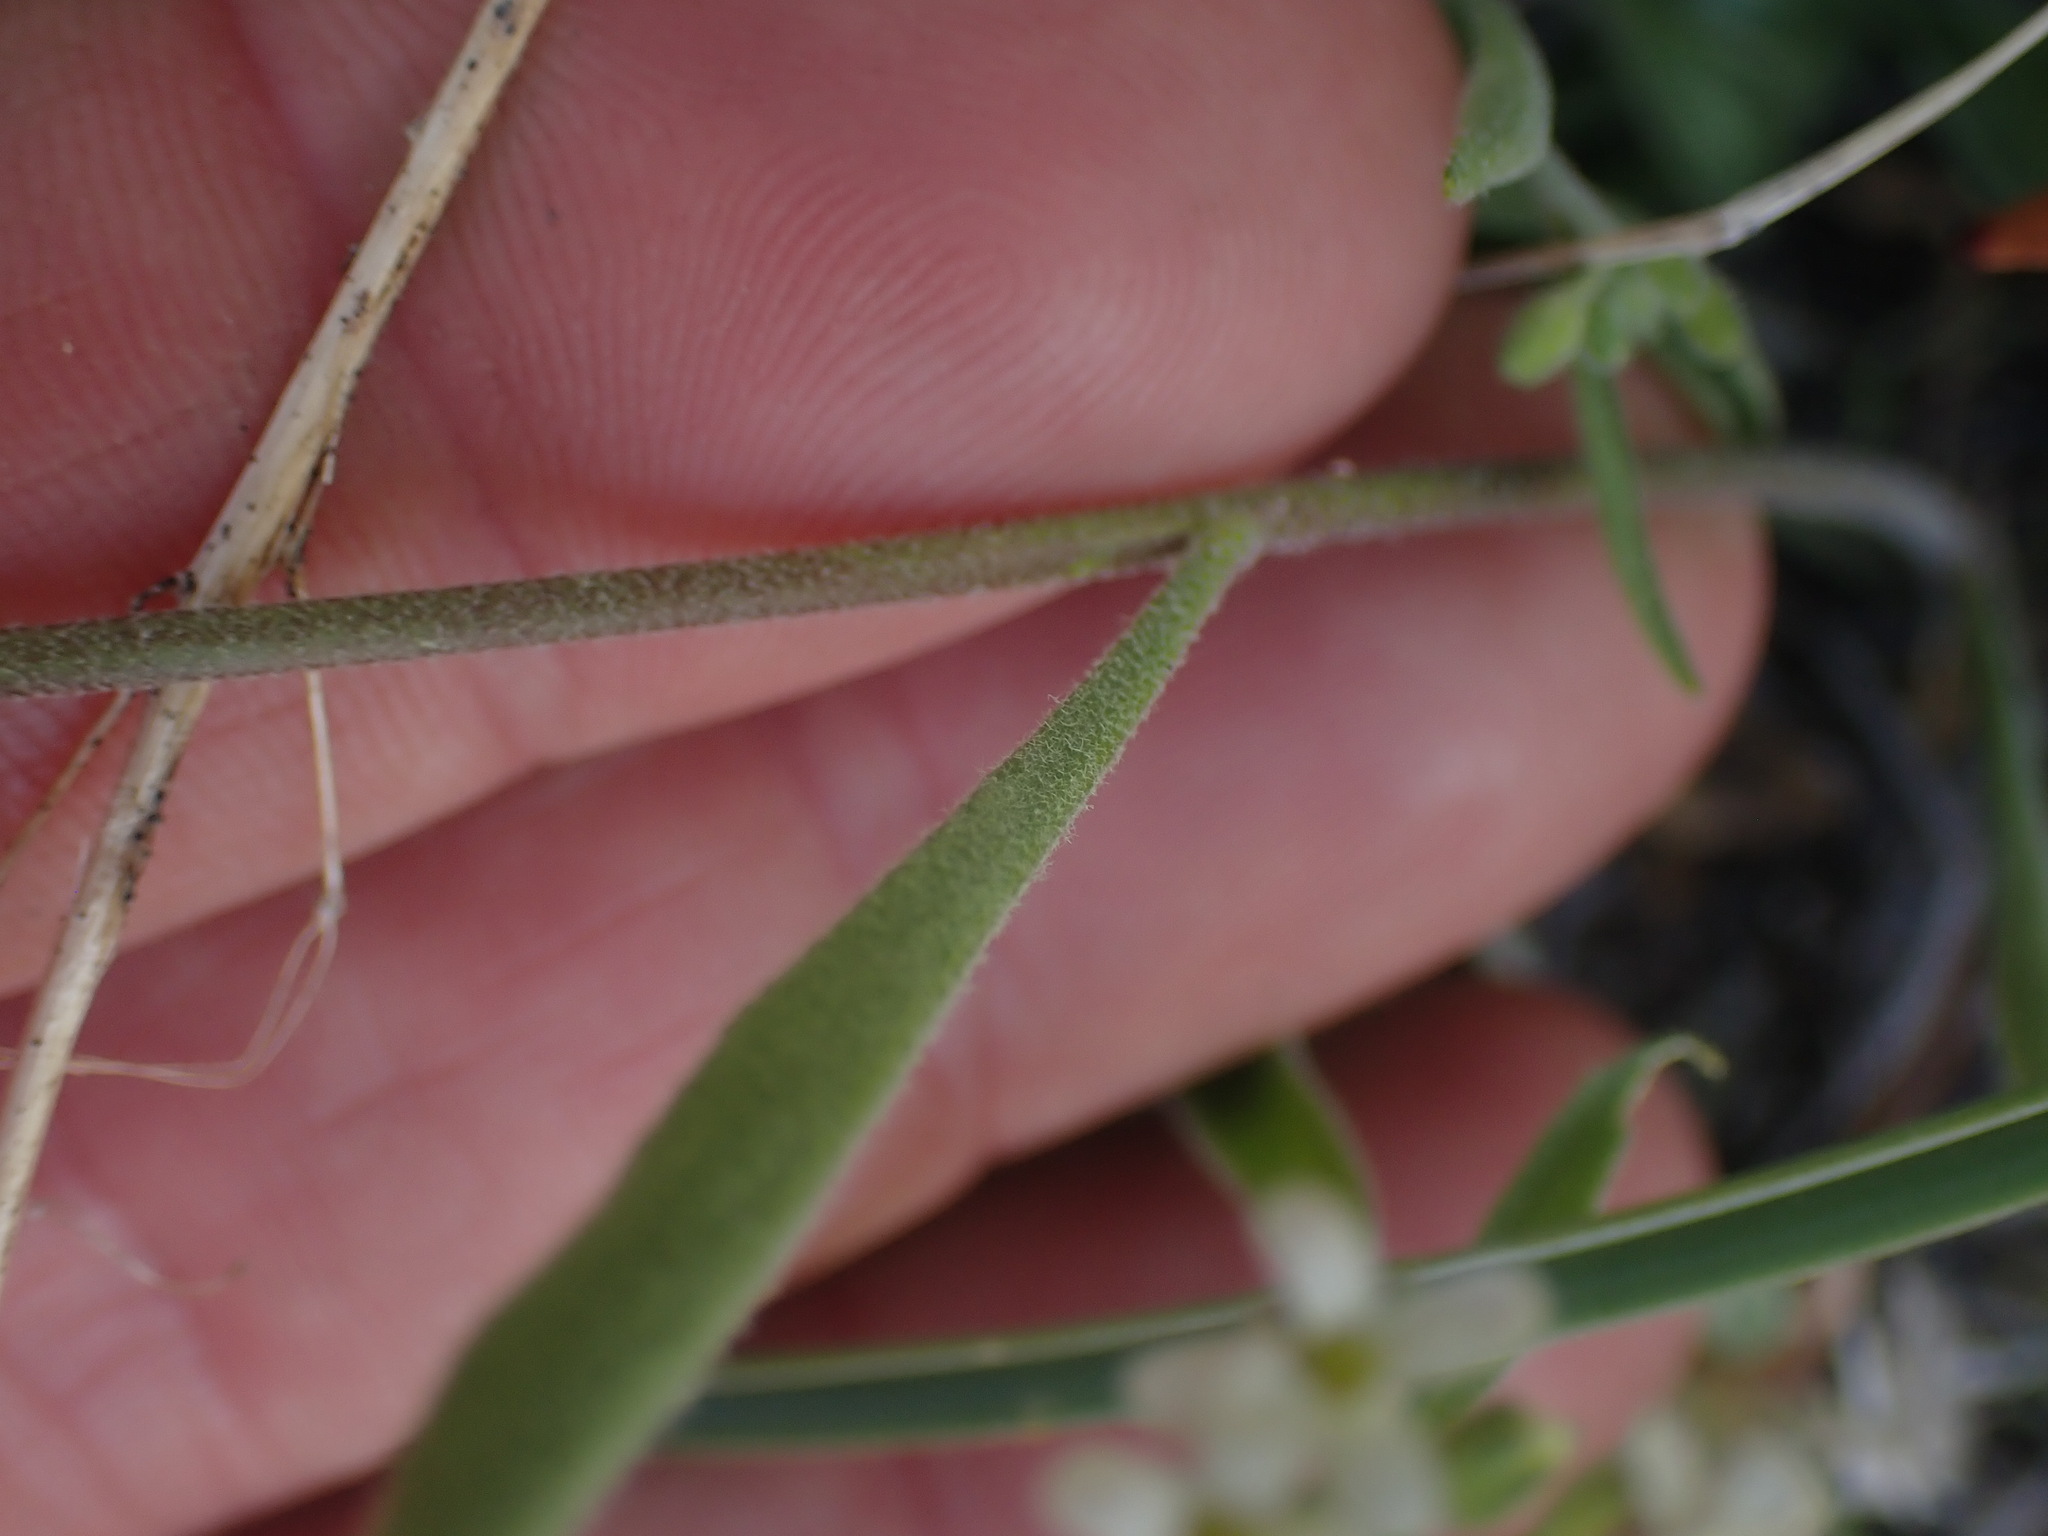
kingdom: Plantae
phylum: Tracheophyta
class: Magnoliopsida
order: Brassicales
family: Brassicaceae
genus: Sandbergia
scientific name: Sandbergia whitedii
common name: Whited's fissurewort
